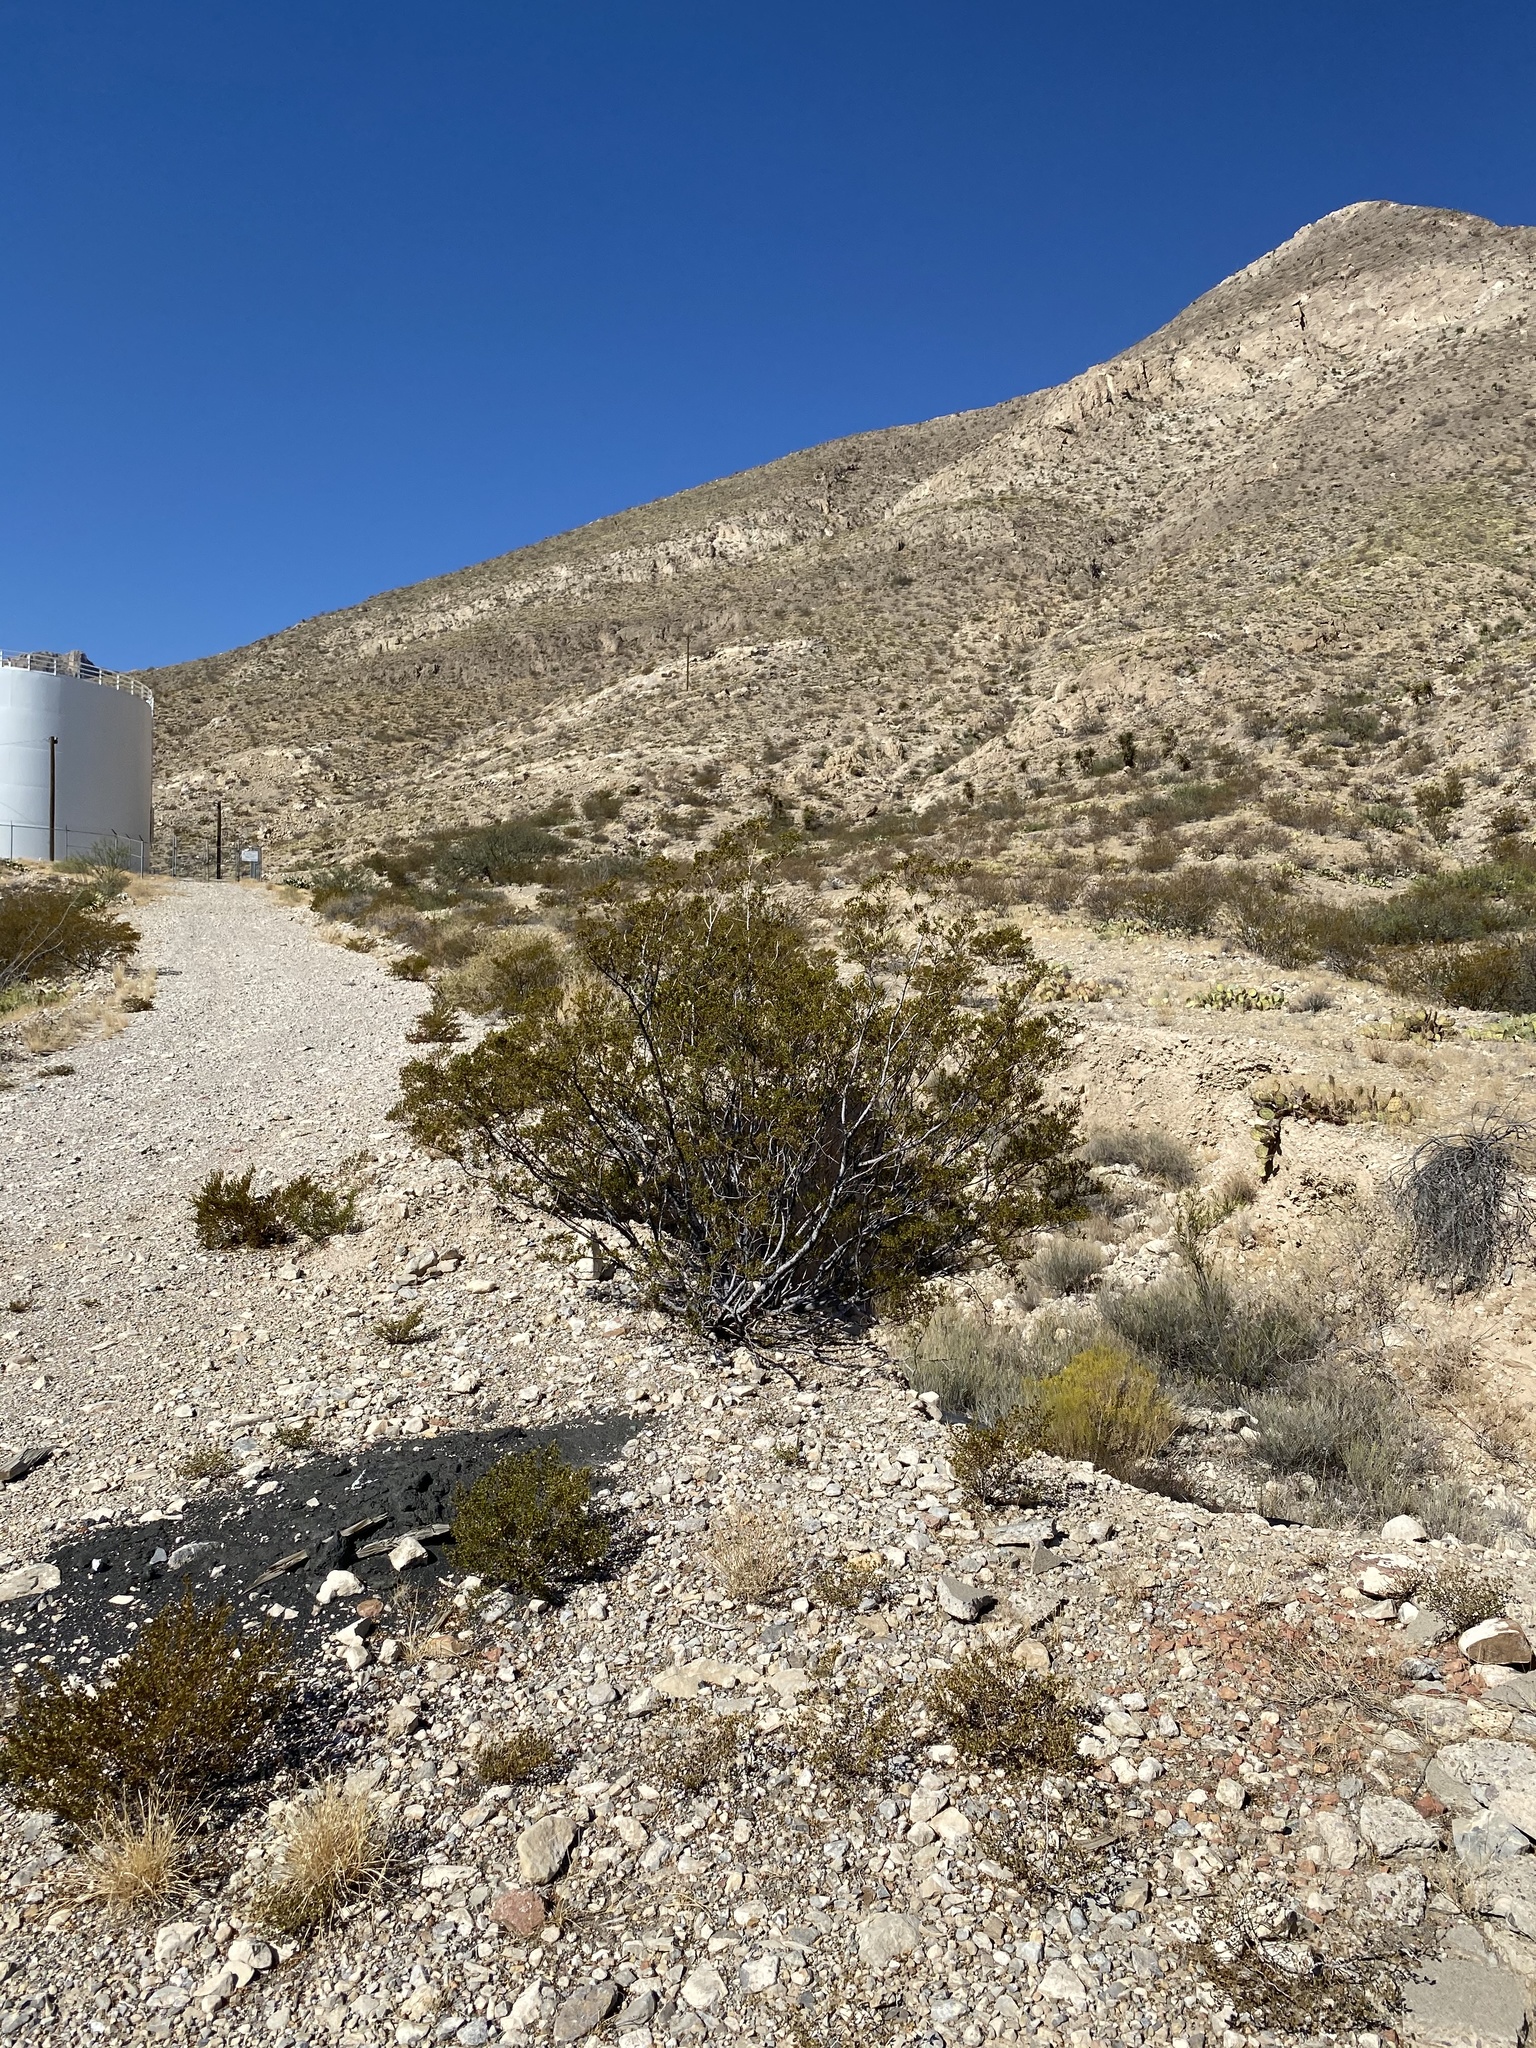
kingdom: Plantae
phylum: Tracheophyta
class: Magnoliopsida
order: Zygophyllales
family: Zygophyllaceae
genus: Larrea
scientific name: Larrea tridentata
